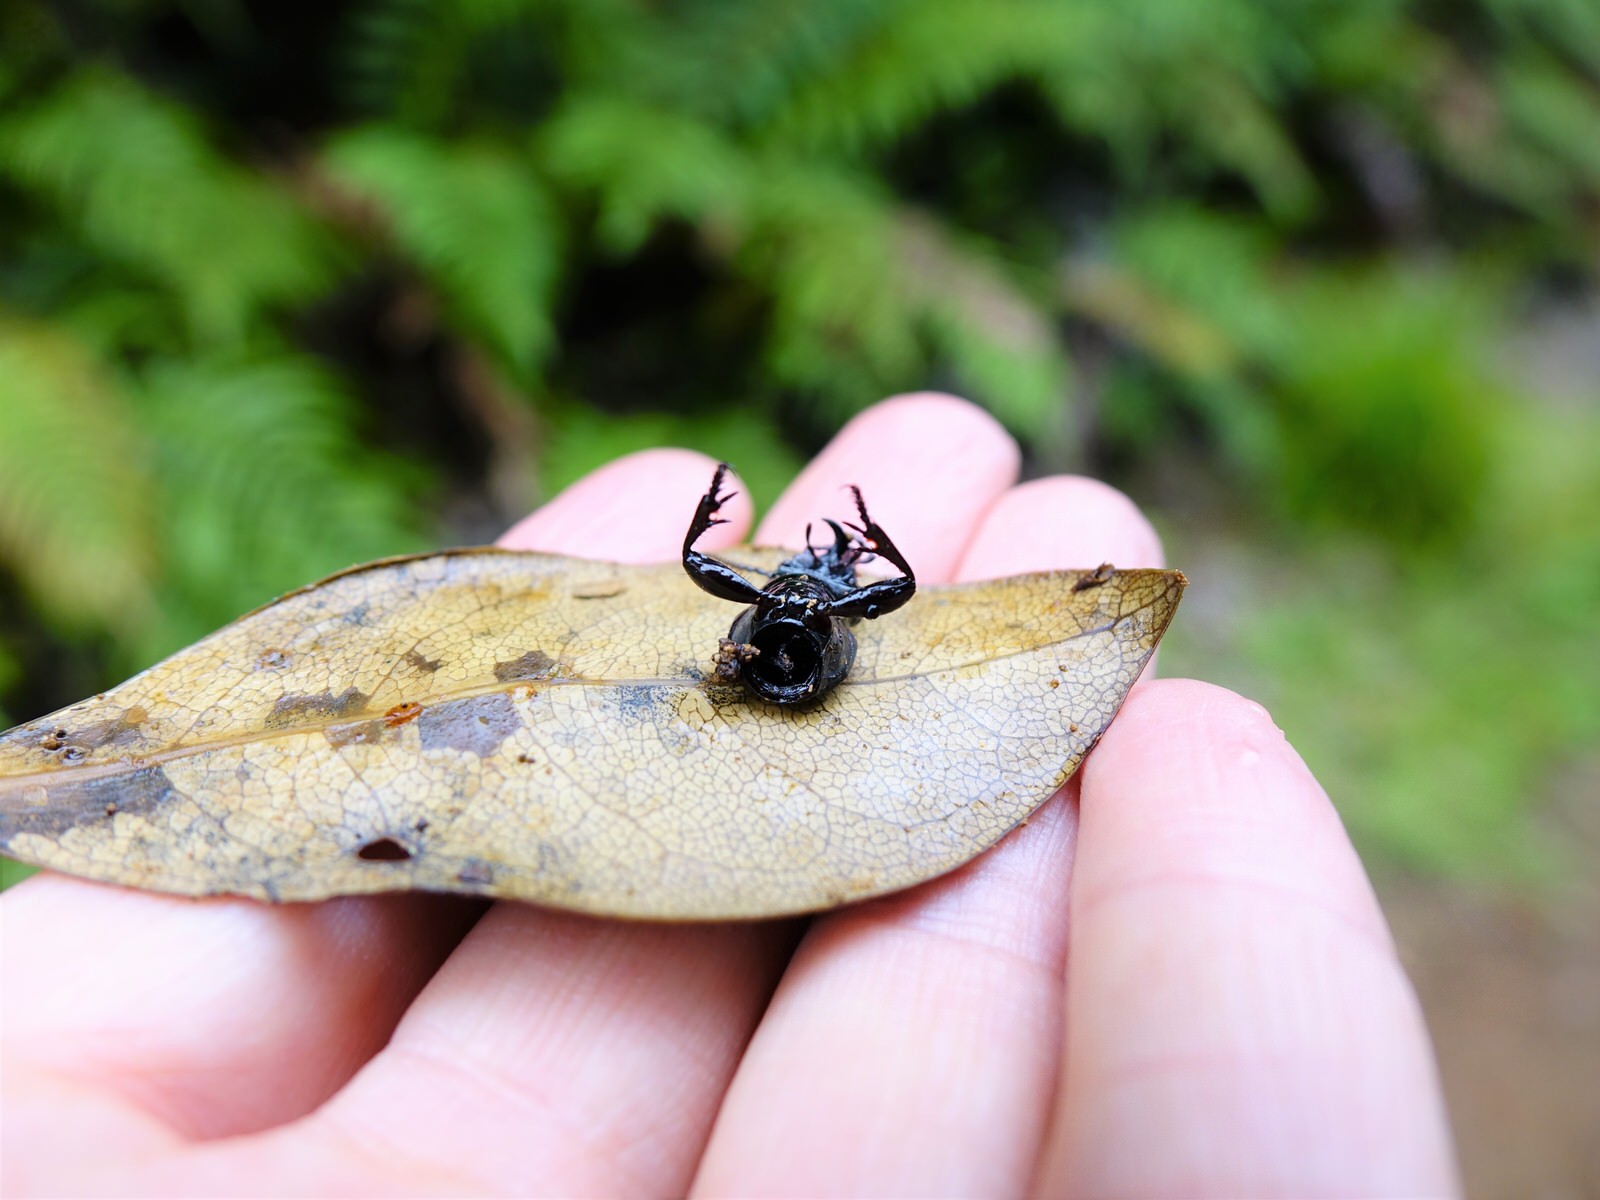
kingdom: Animalia
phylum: Arthropoda
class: Insecta
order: Coleoptera
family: Carabidae
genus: Mecodema
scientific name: Mecodema spiniferum
